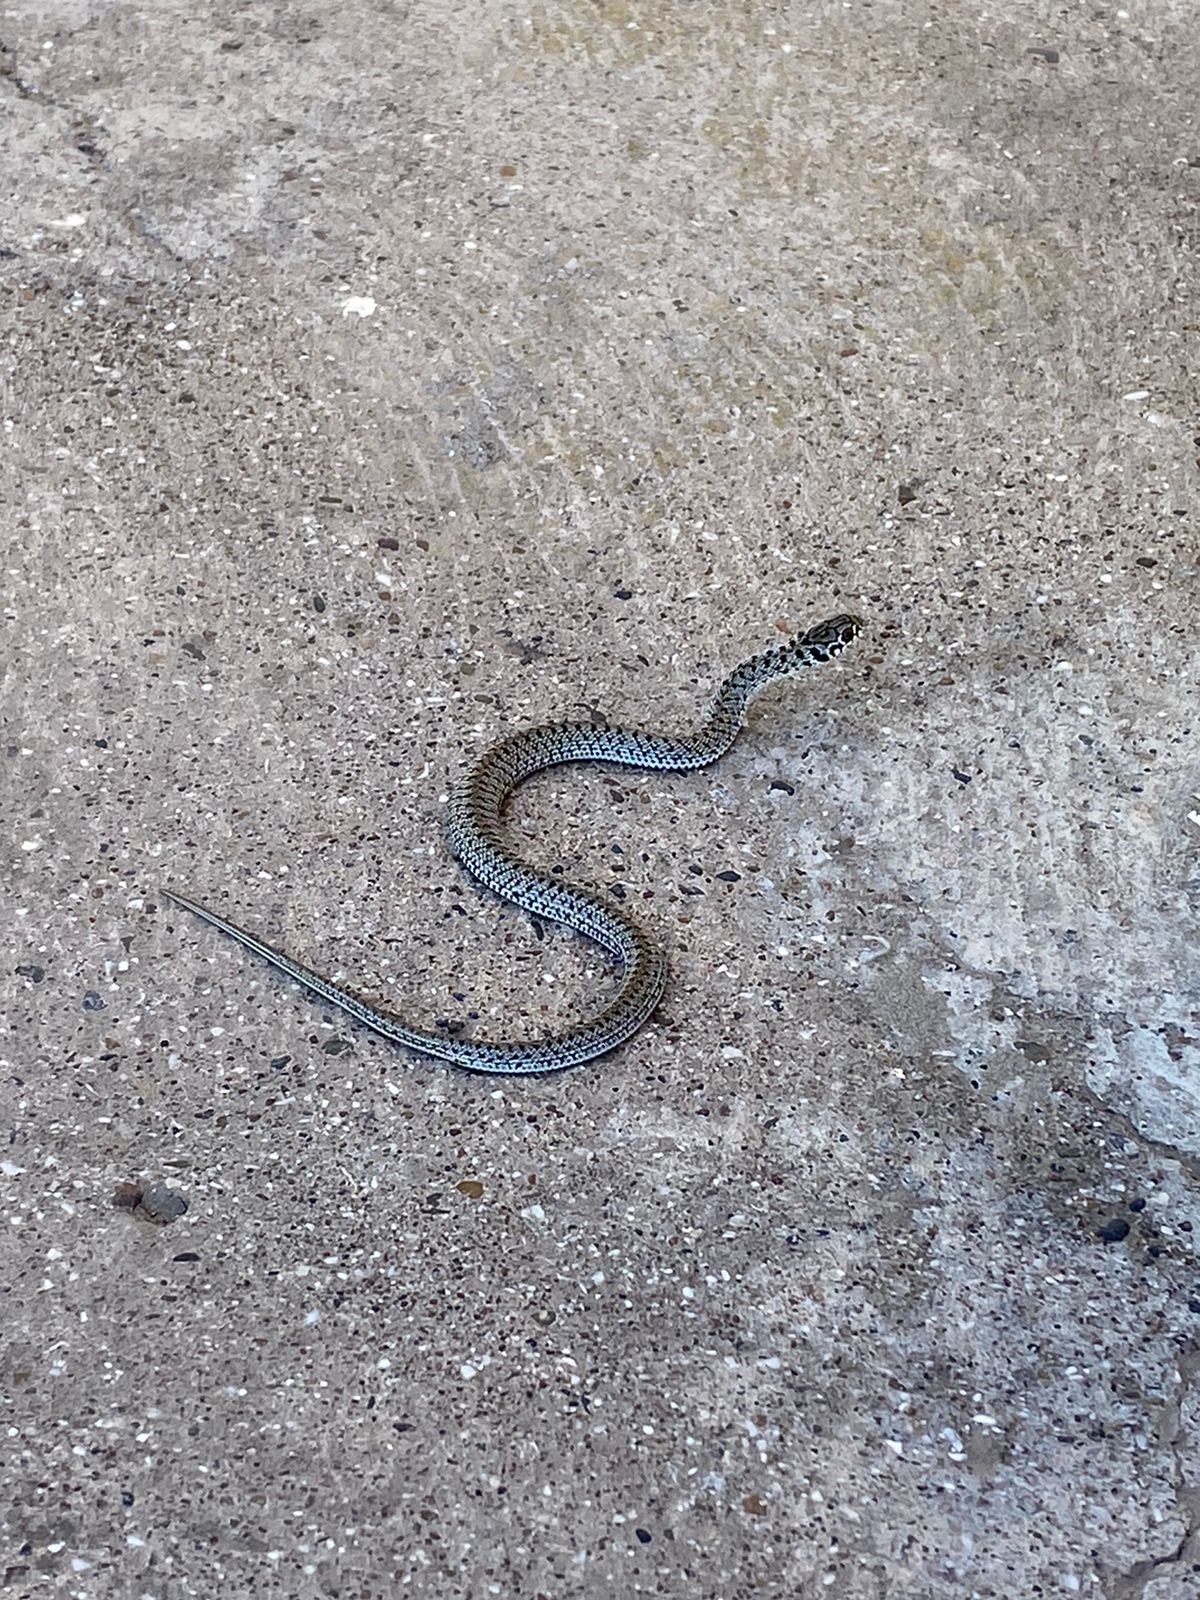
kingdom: Animalia
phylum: Chordata
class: Squamata
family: Colubridae
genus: Philodryas
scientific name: Philodryas patagoniensis
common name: Patagonia green racer
